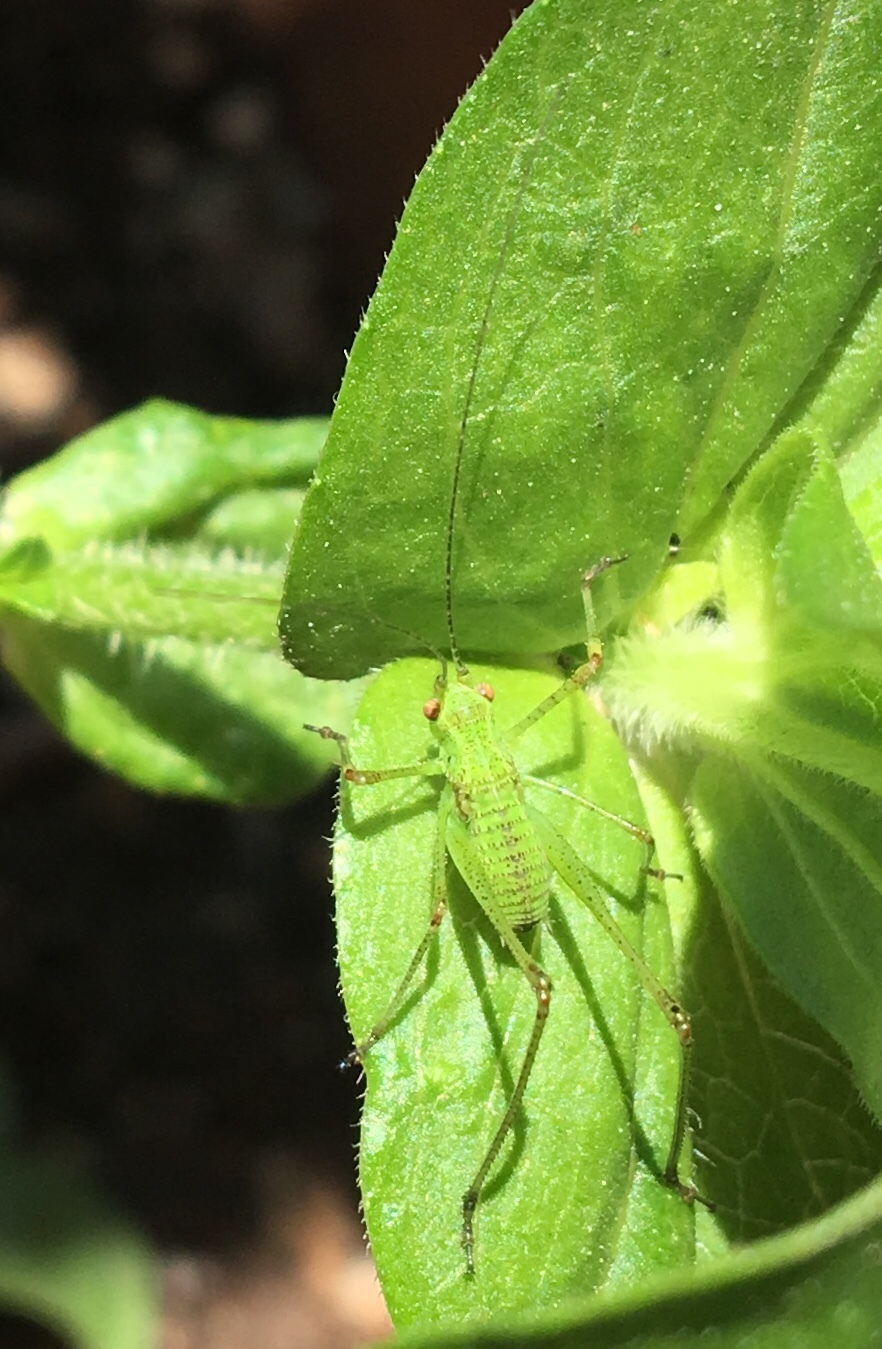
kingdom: Animalia
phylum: Arthropoda
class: Insecta
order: Orthoptera
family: Tettigoniidae
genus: Phaneroptera
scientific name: Phaneroptera nana
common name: Southern sickle bush-cricket
